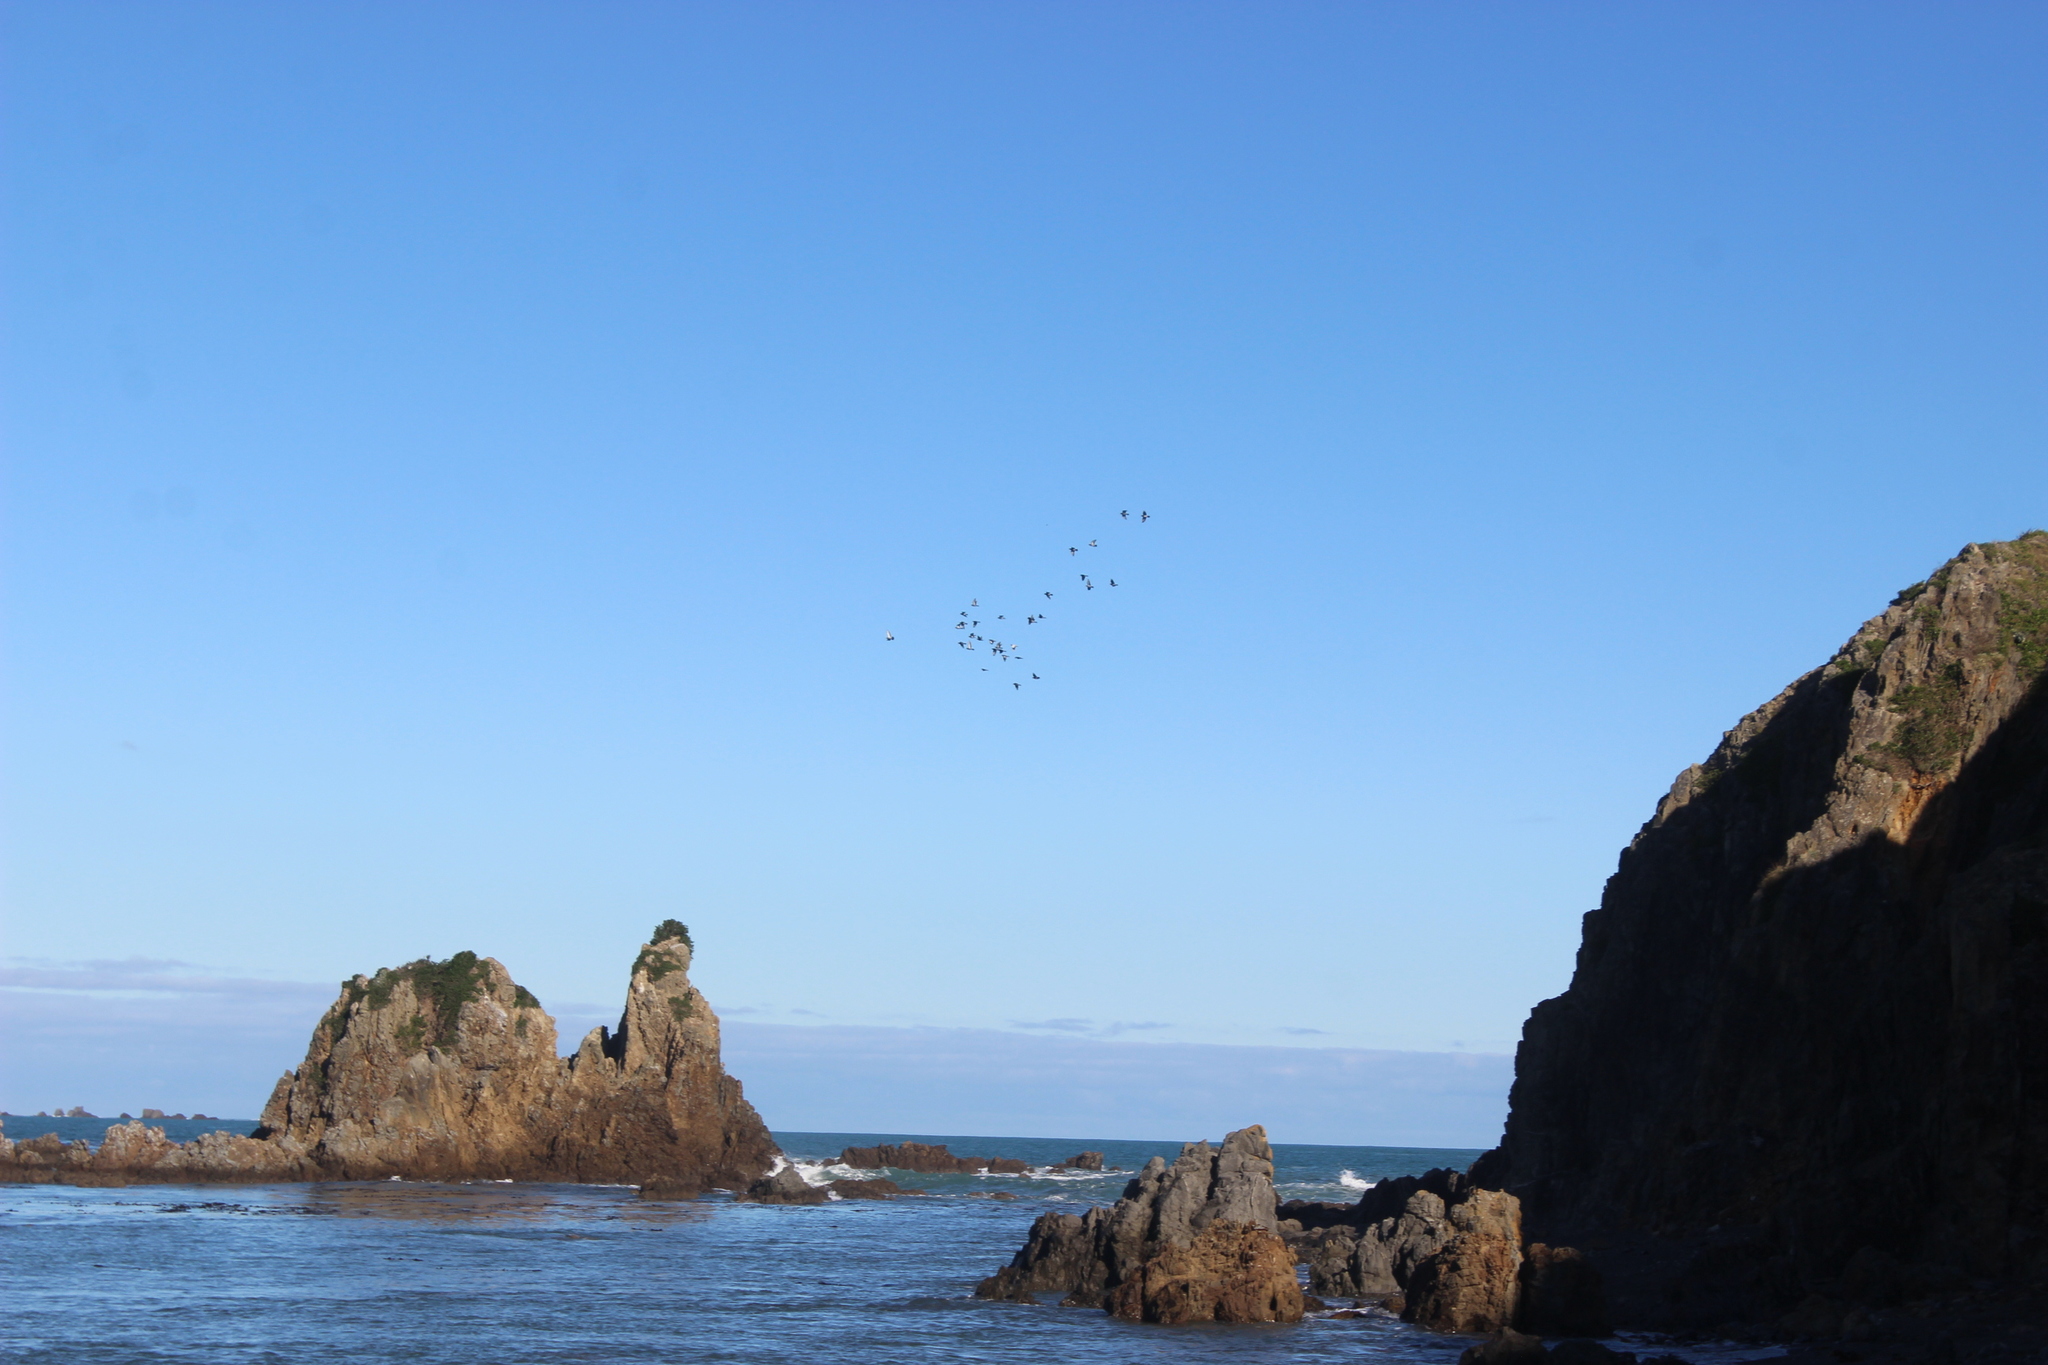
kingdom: Animalia
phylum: Chordata
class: Aves
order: Columbiformes
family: Columbidae
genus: Columba
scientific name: Columba livia
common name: Rock pigeon
